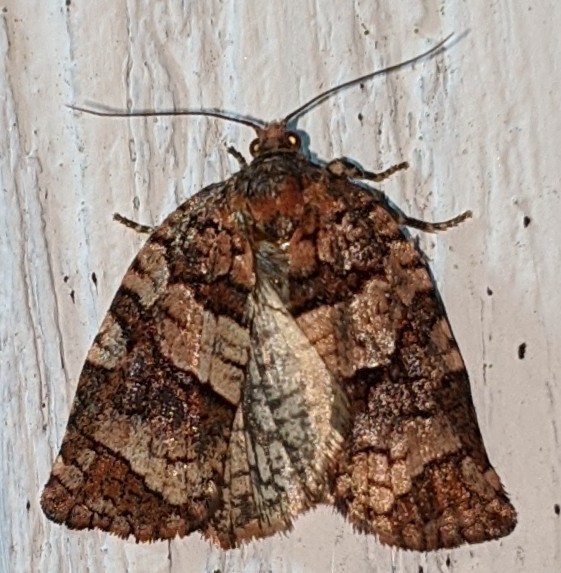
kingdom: Animalia
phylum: Arthropoda
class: Insecta
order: Lepidoptera
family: Tortricidae
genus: Archips
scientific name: Archips alberta
